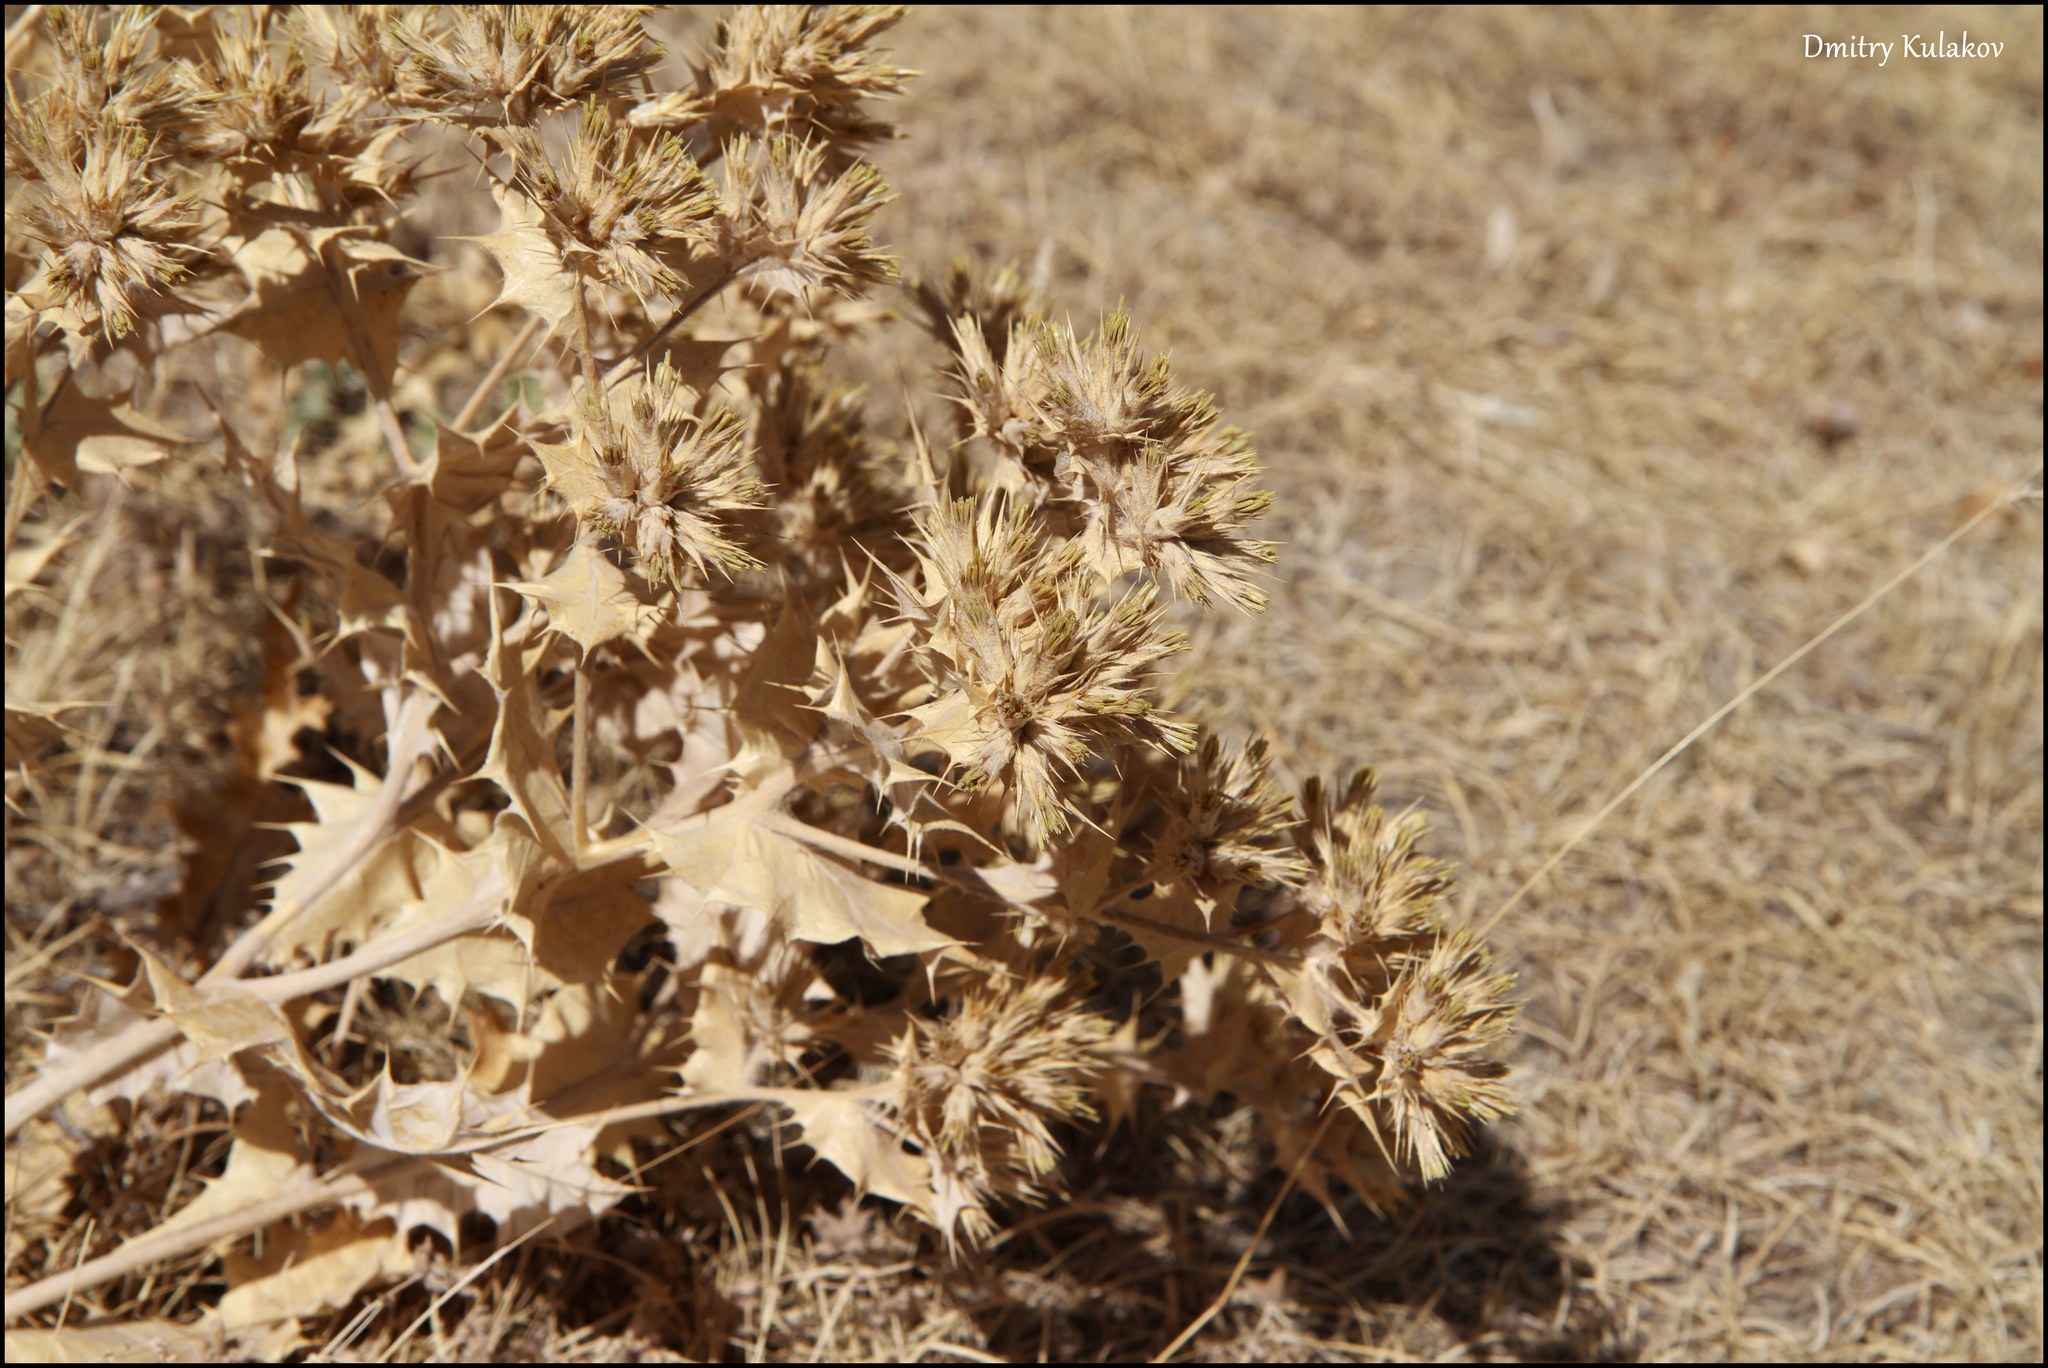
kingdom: Plantae
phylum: Tracheophyta
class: Magnoliopsida
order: Asterales
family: Asteraceae
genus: Cousinia
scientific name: Cousinia horridula
